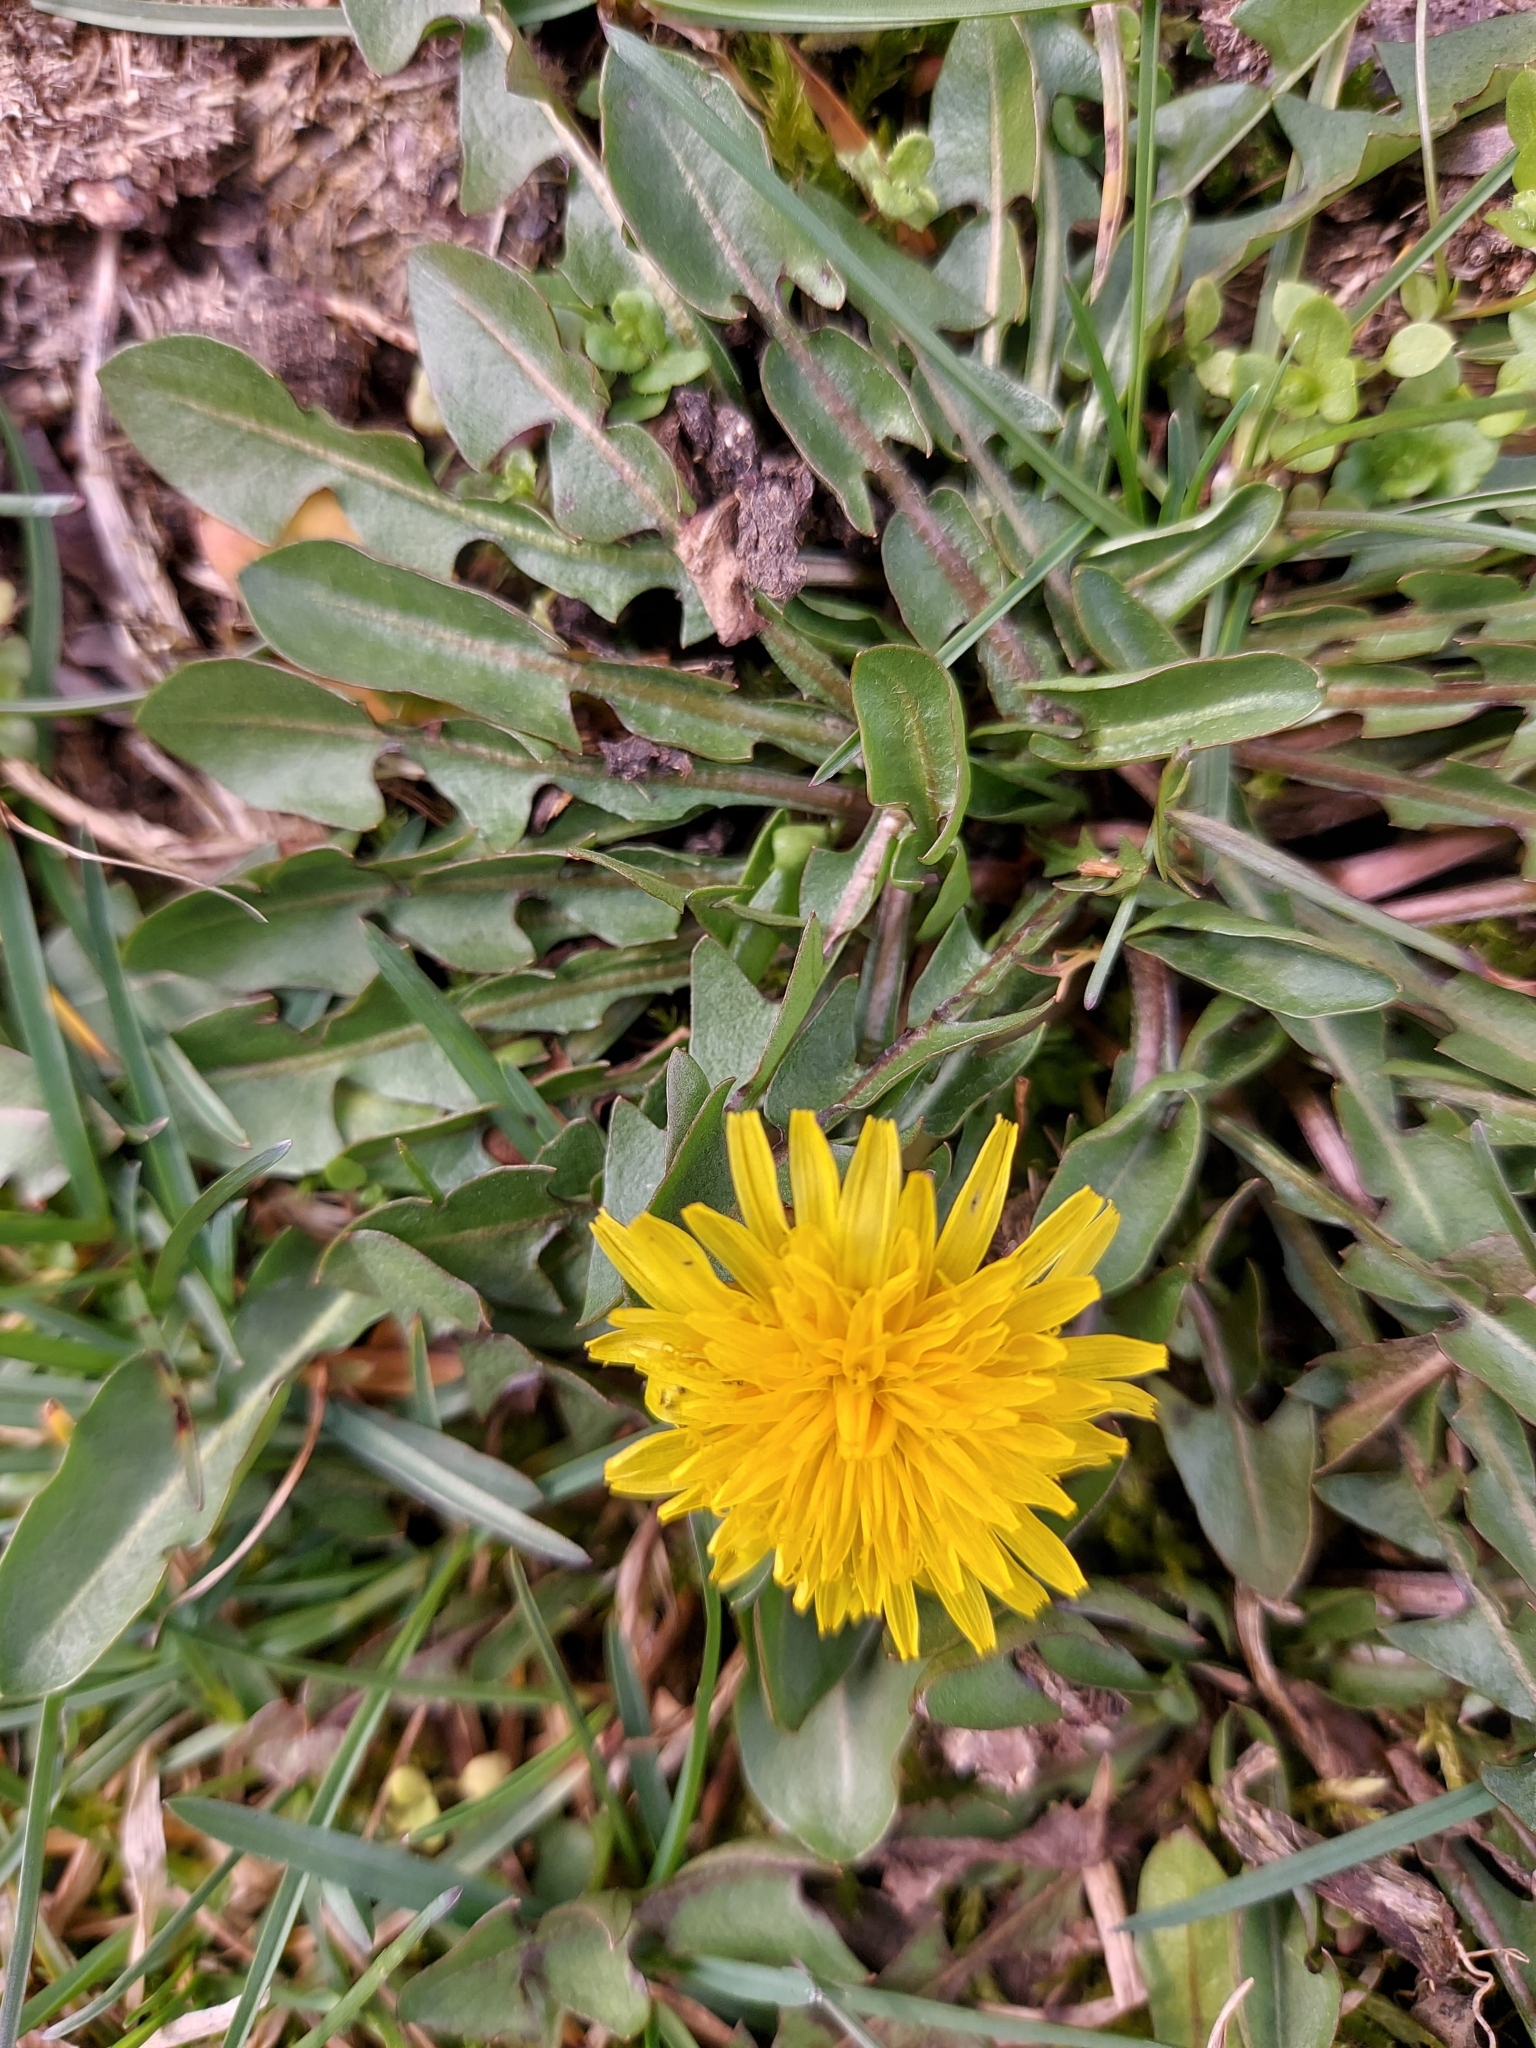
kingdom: Plantae
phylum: Tracheophyta
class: Magnoliopsida
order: Asterales
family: Asteraceae
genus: Taraxacum
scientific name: Taraxacum officinale
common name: Common dandelion
